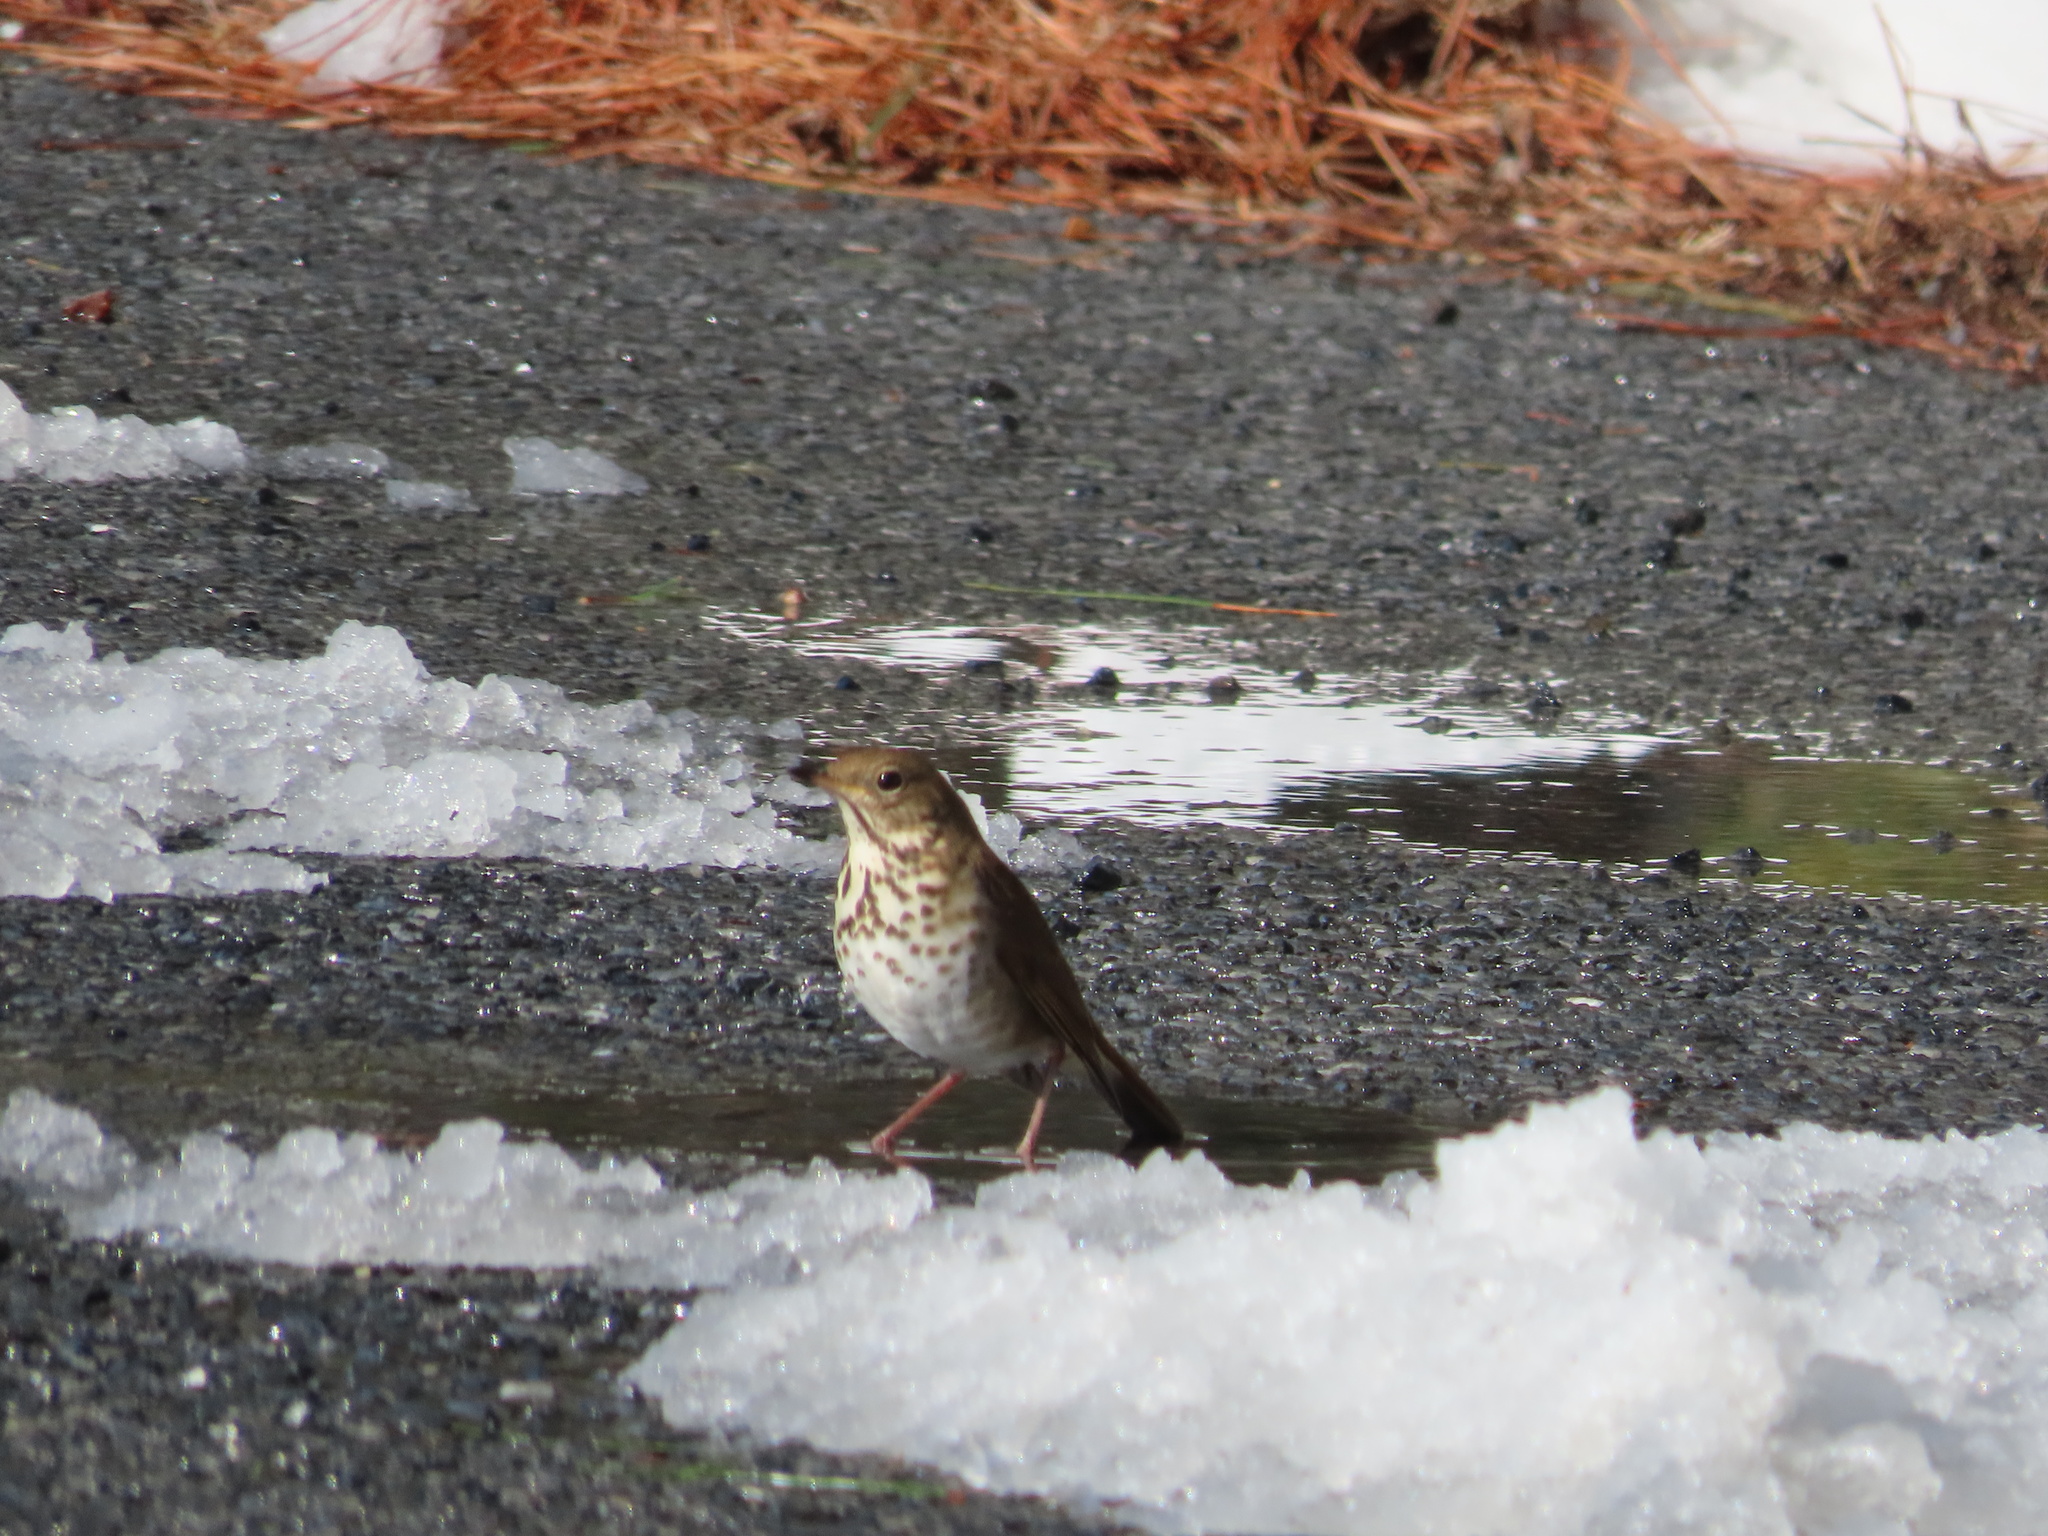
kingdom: Animalia
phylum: Chordata
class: Aves
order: Passeriformes
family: Turdidae
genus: Catharus
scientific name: Catharus guttatus
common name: Hermit thrush
